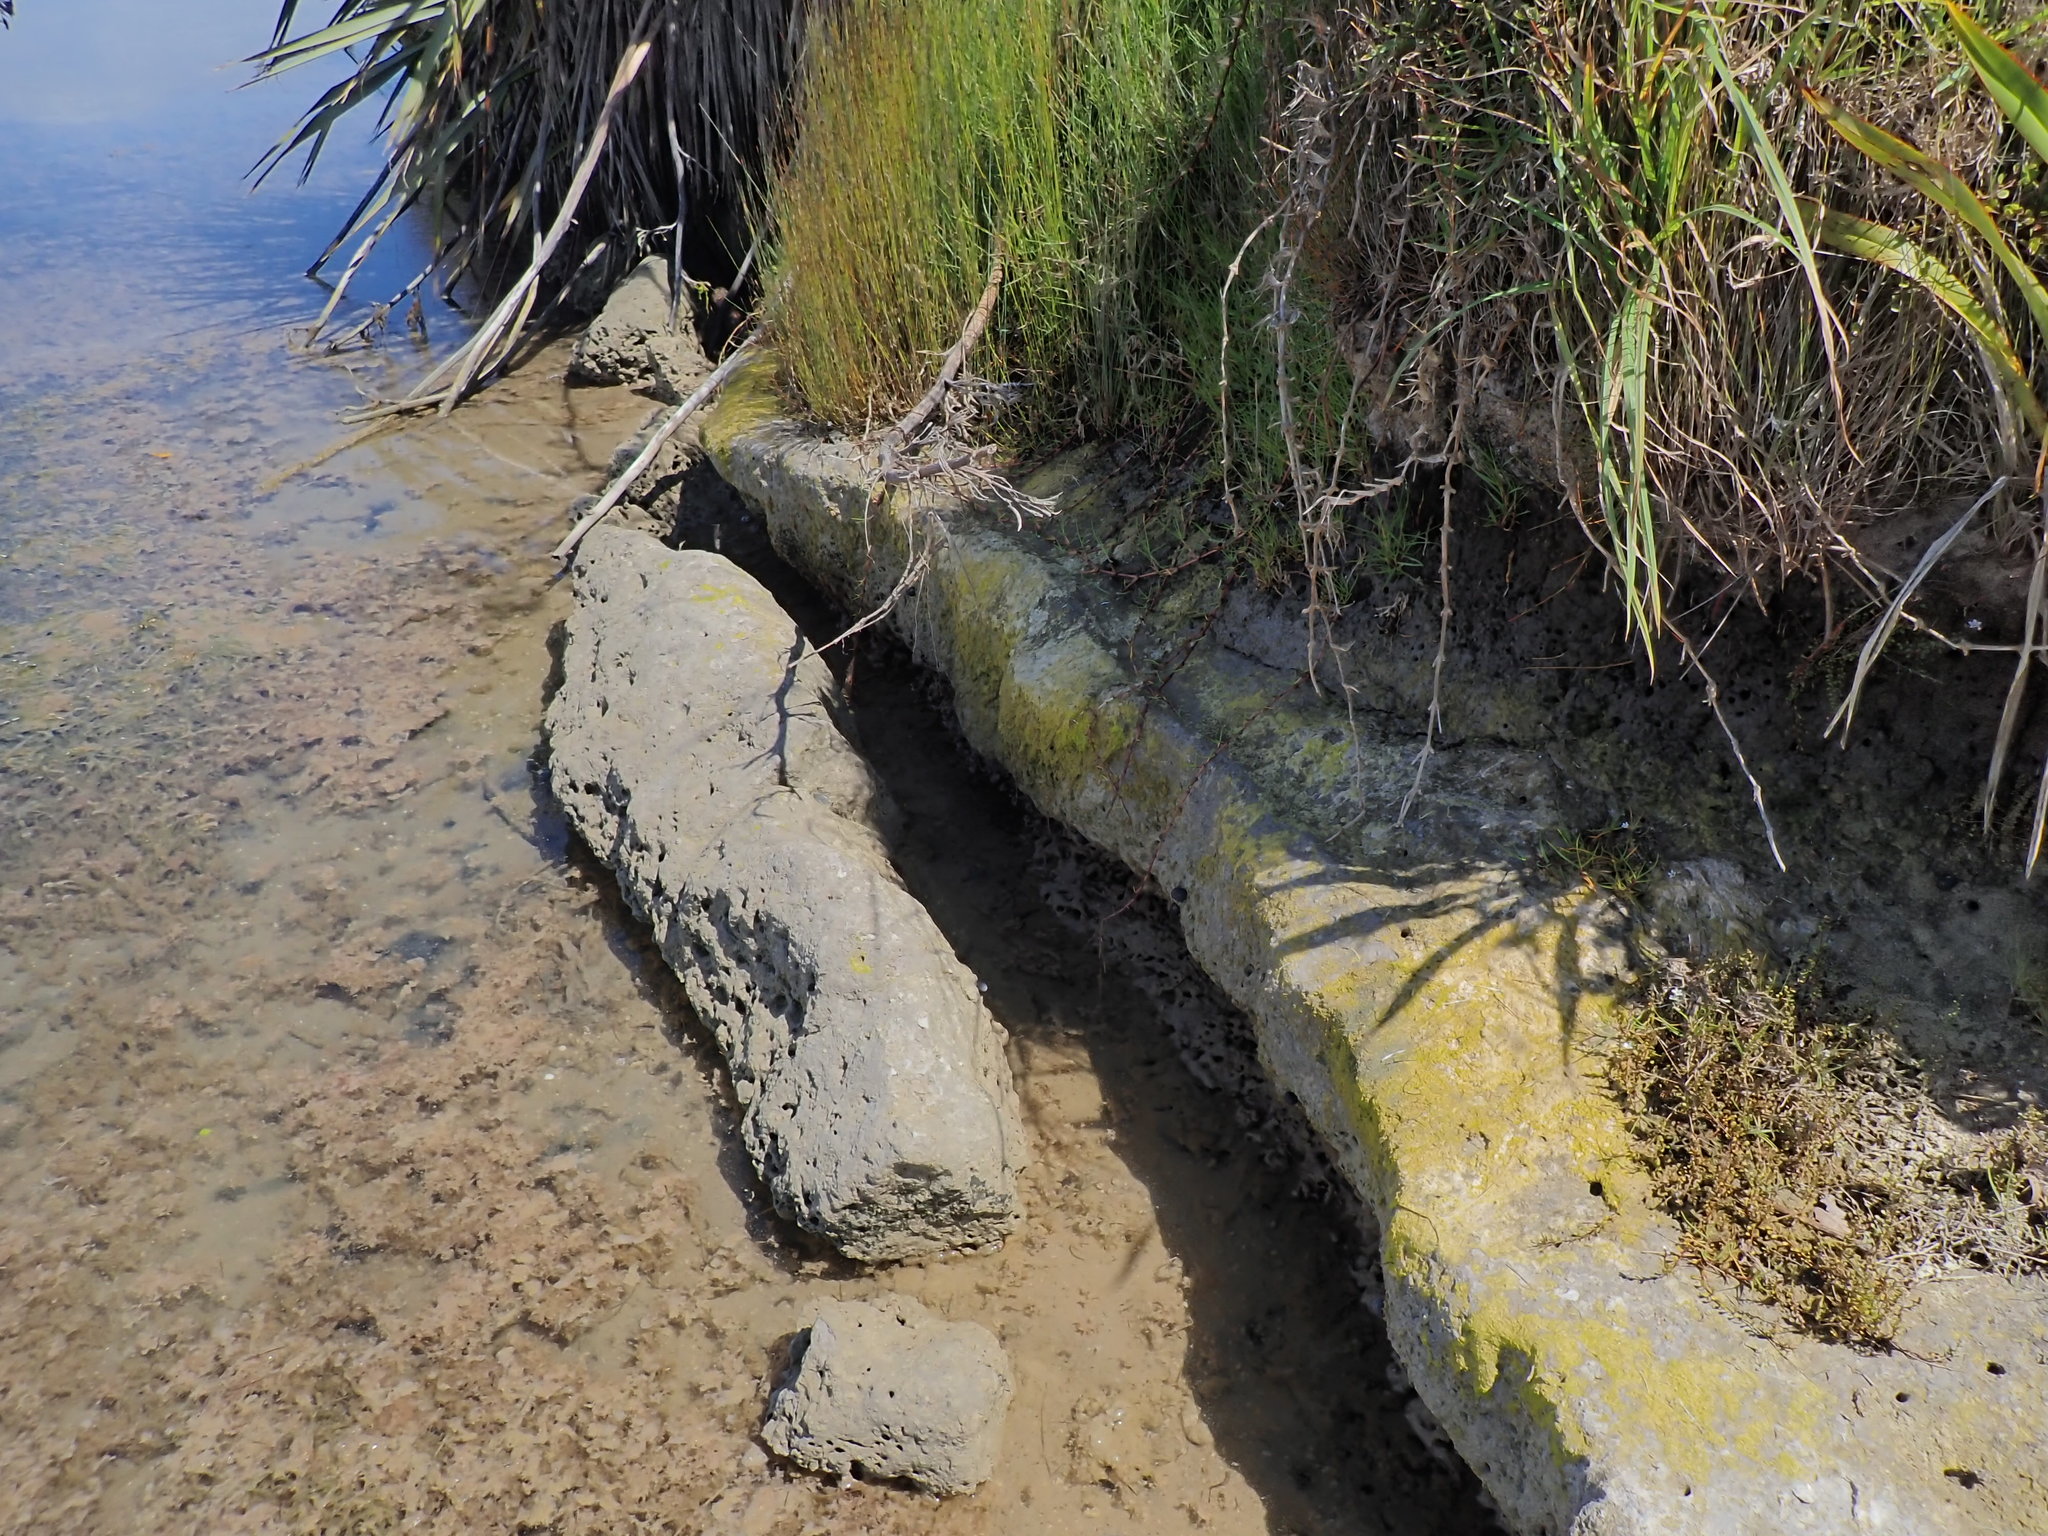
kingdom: Animalia
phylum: Cnidaria
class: Anthozoa
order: Actiniaria
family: Diadumenidae
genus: Diadumene
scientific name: Diadumene lineata
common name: Orange-striped anemone
